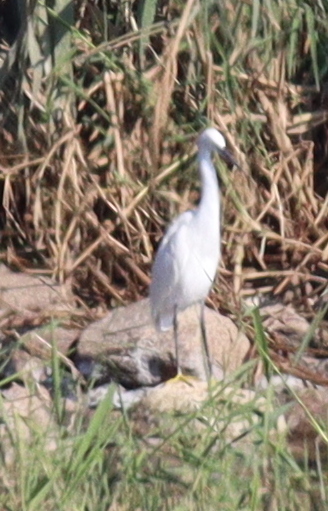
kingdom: Animalia
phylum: Chordata
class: Aves
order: Pelecaniformes
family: Ardeidae
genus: Egretta
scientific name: Egretta garzetta
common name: Little egret
